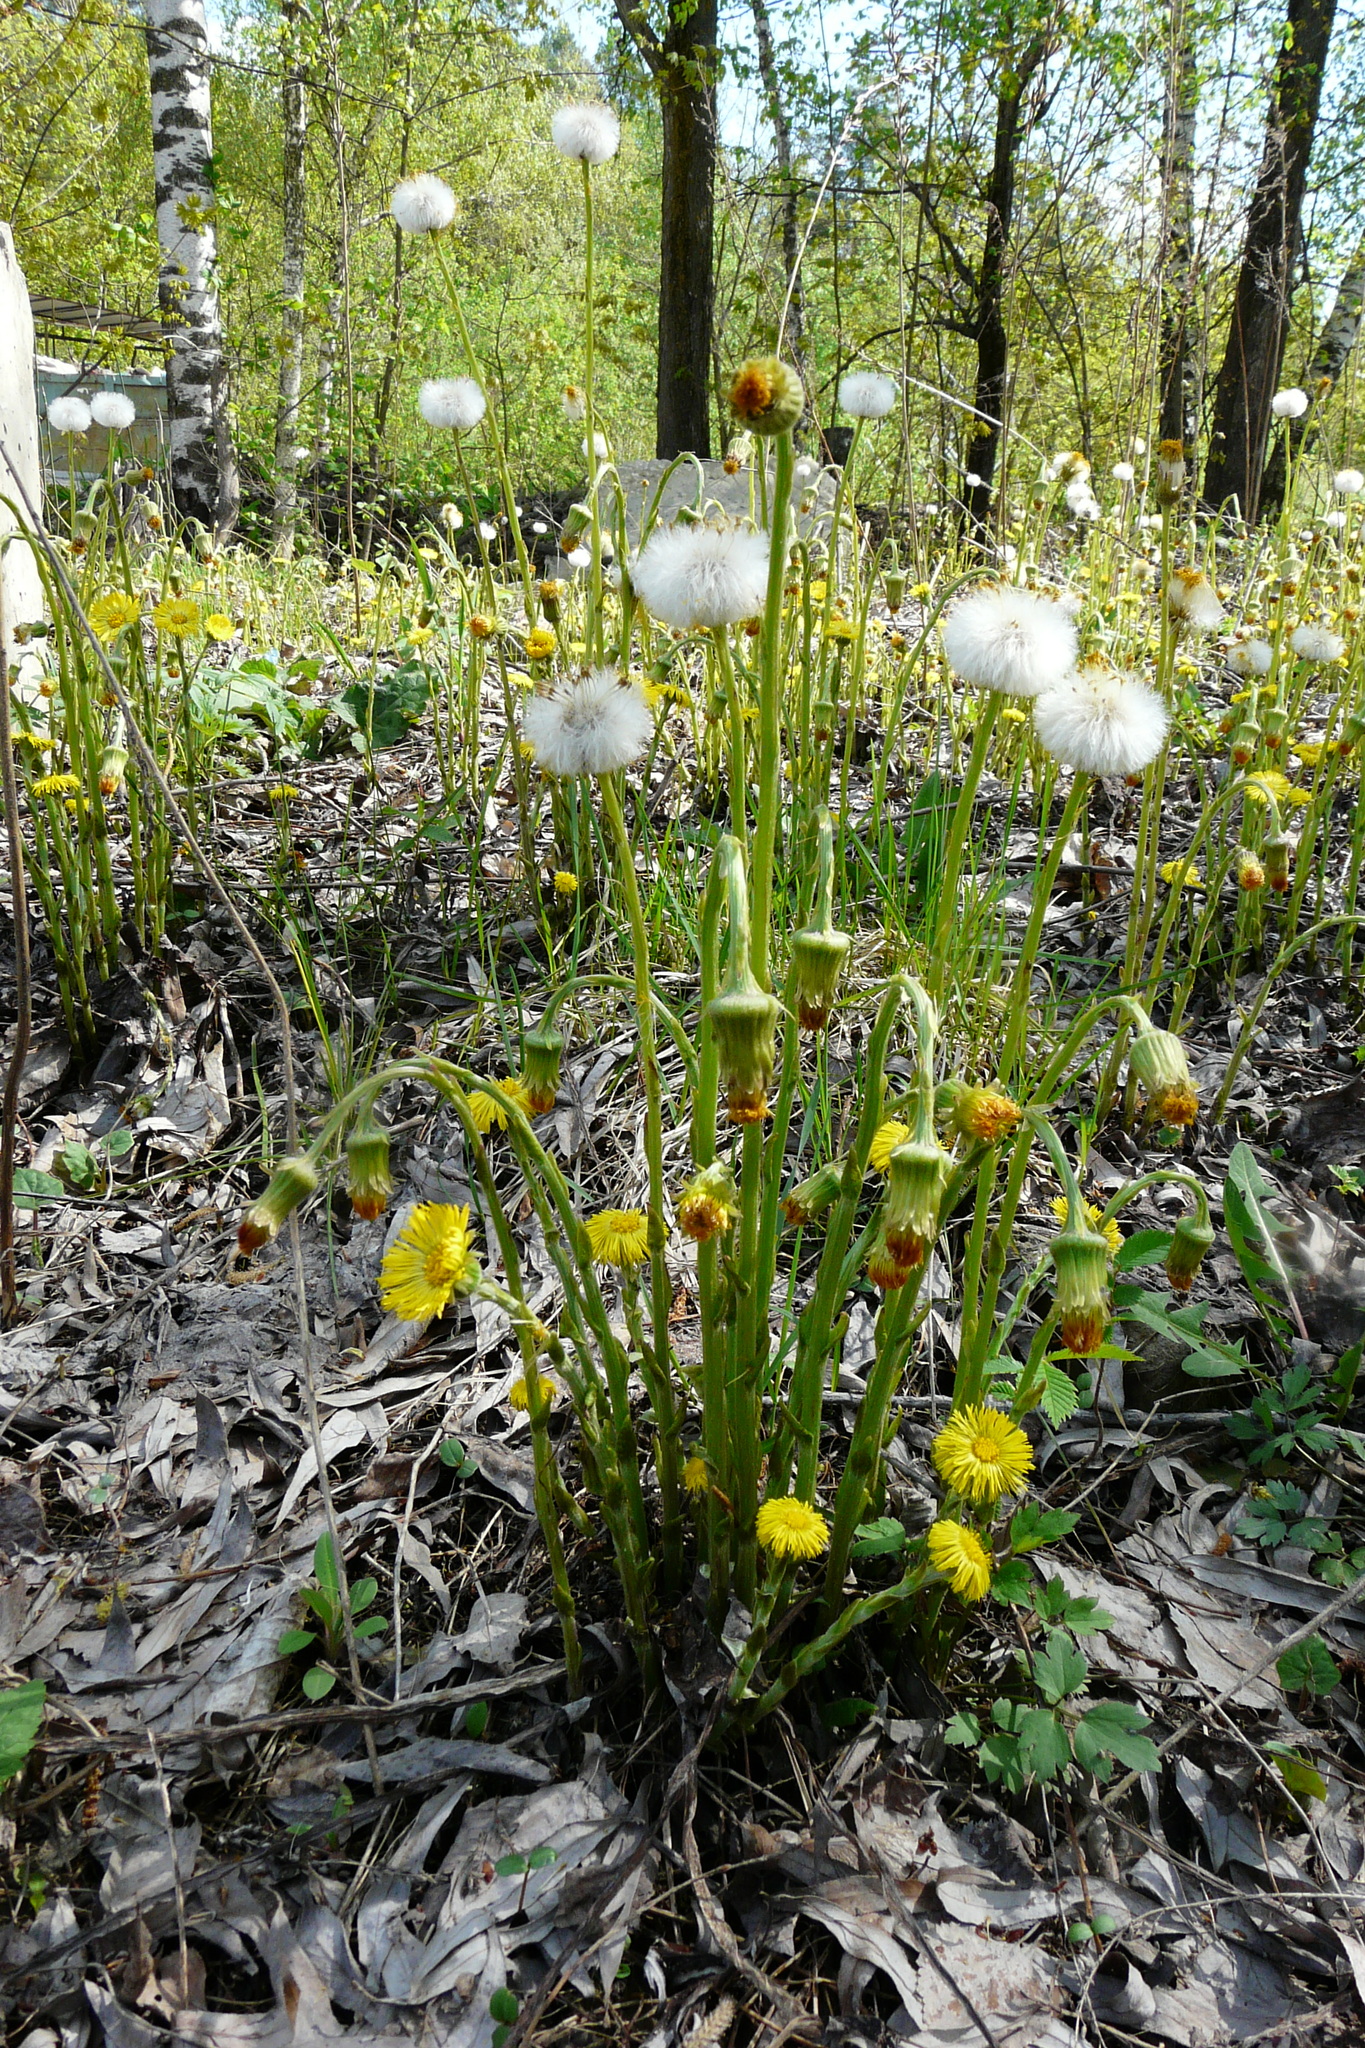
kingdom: Plantae
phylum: Tracheophyta
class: Magnoliopsida
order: Asterales
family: Asteraceae
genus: Tussilago
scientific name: Tussilago farfara
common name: Coltsfoot
